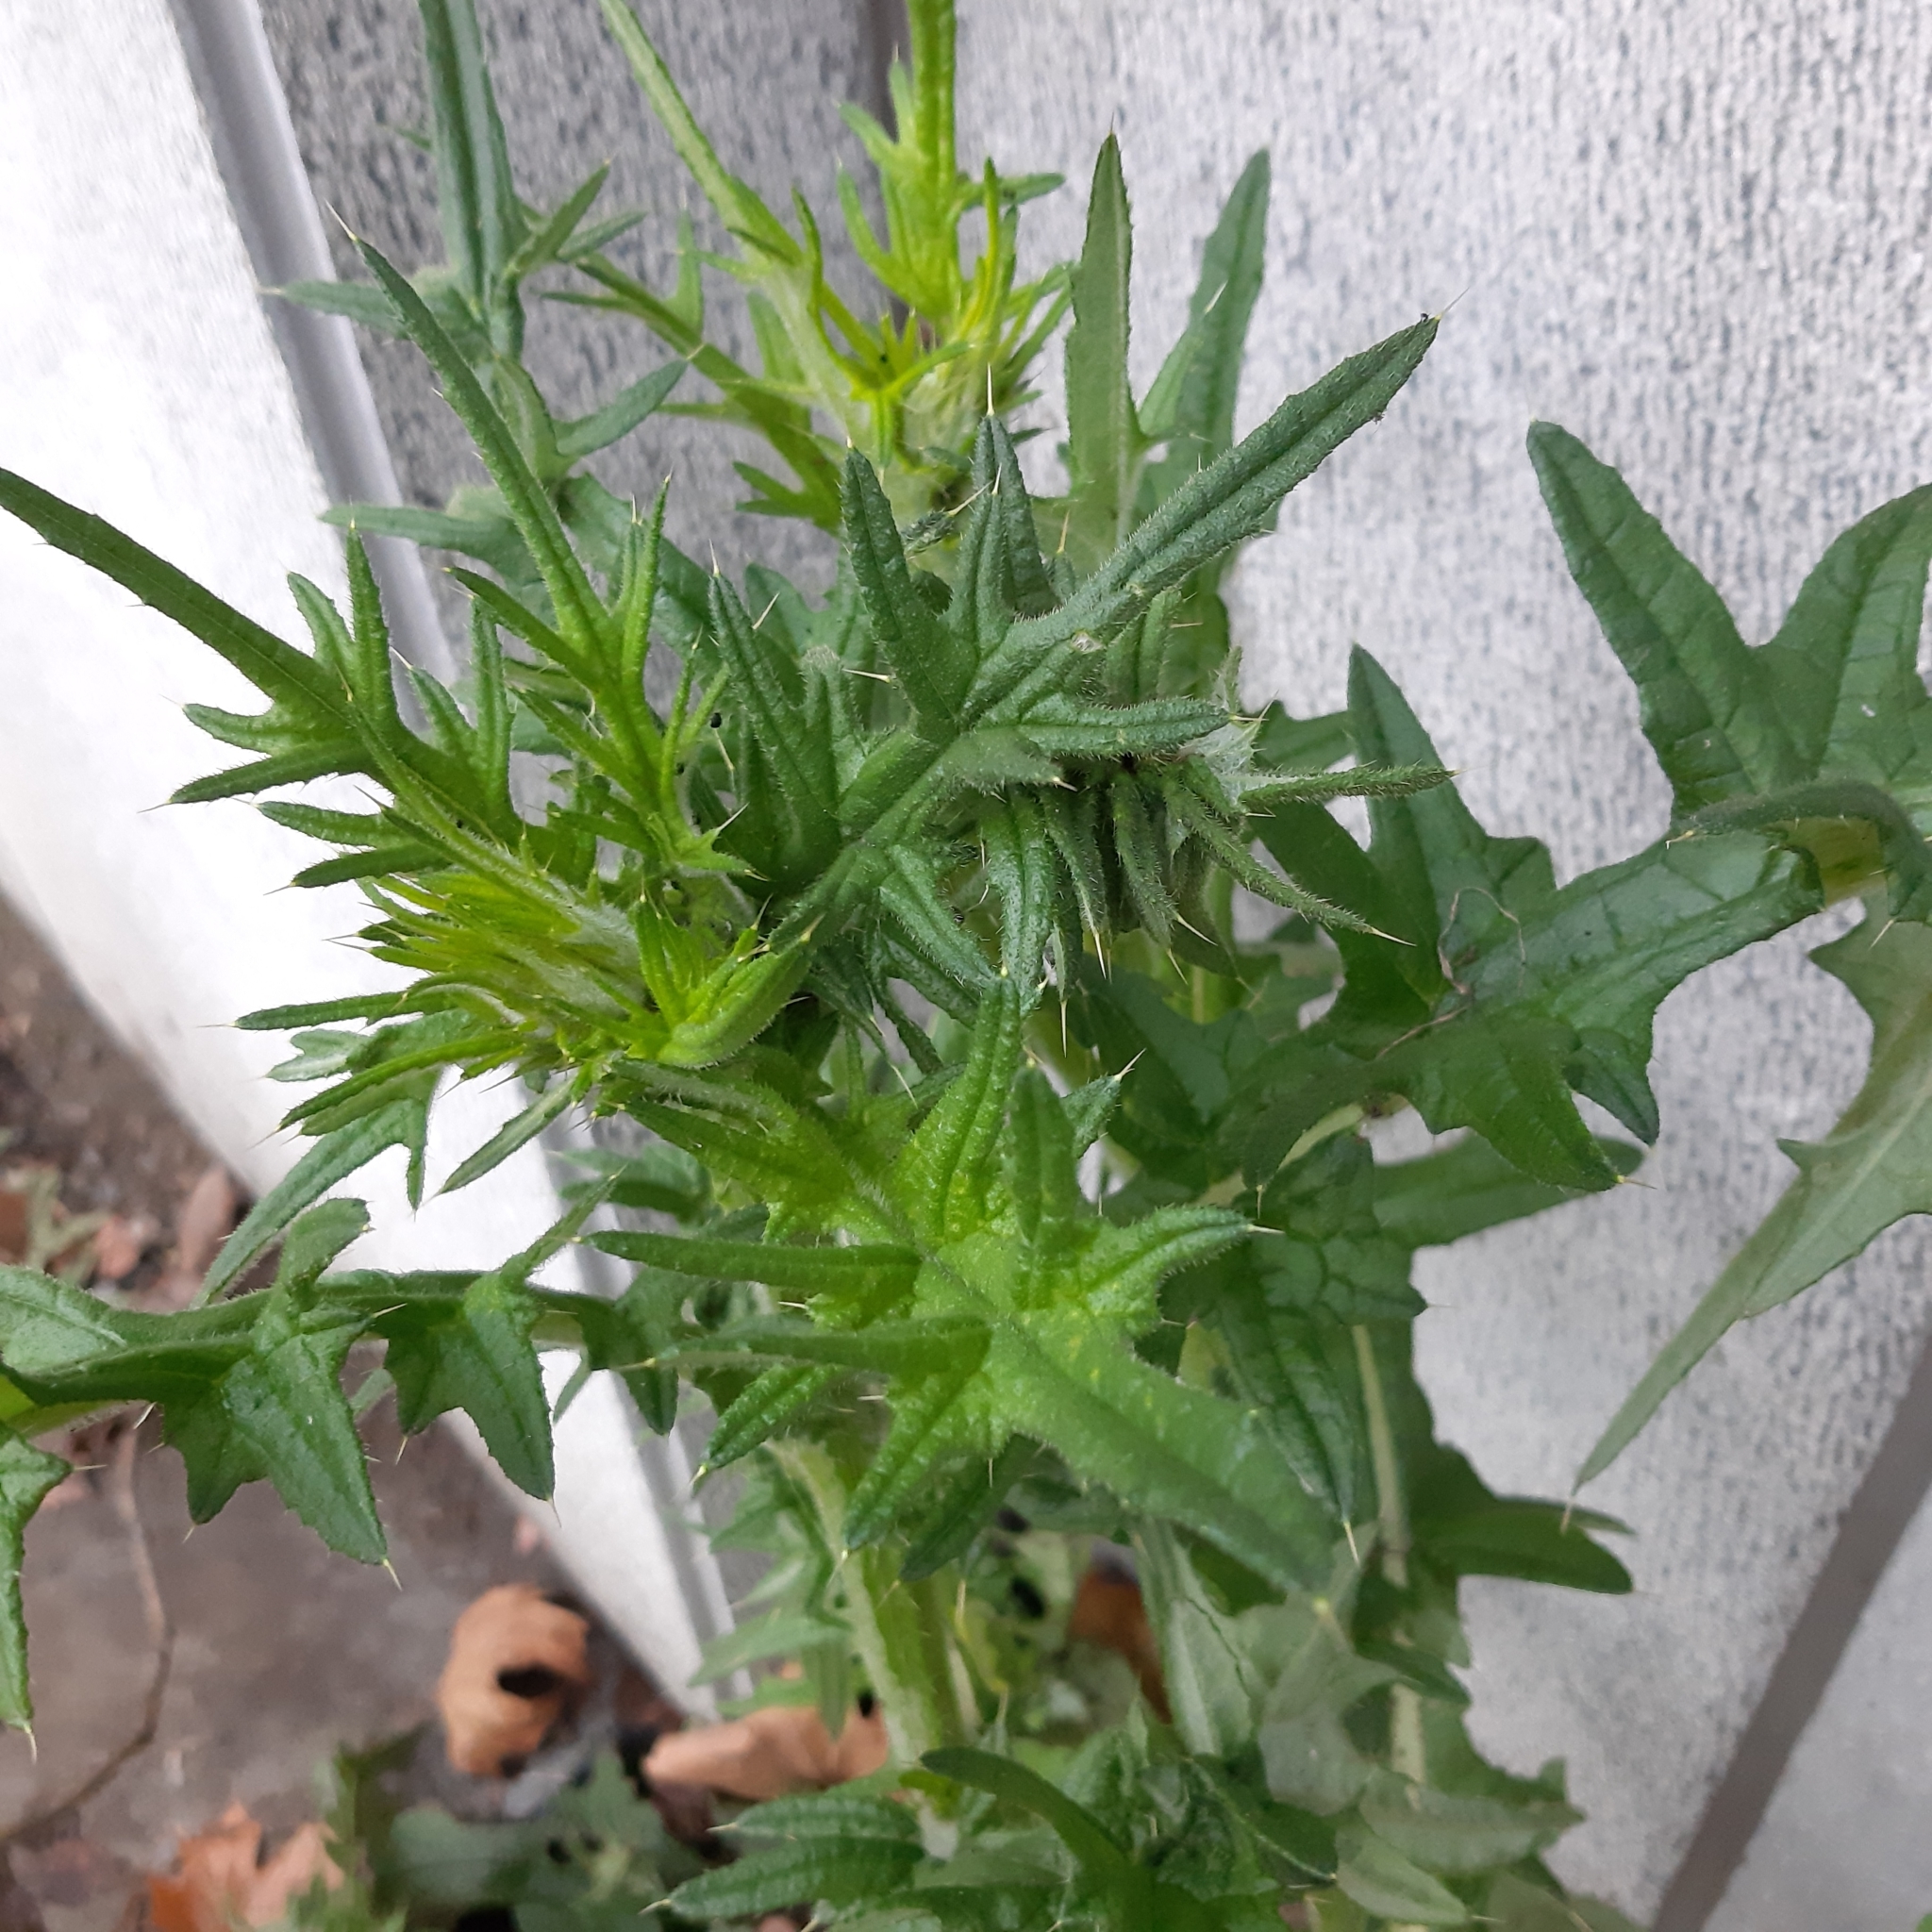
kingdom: Plantae
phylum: Tracheophyta
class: Magnoliopsida
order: Asterales
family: Asteraceae
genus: Cirsium
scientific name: Cirsium vulgare
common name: Bull thistle
